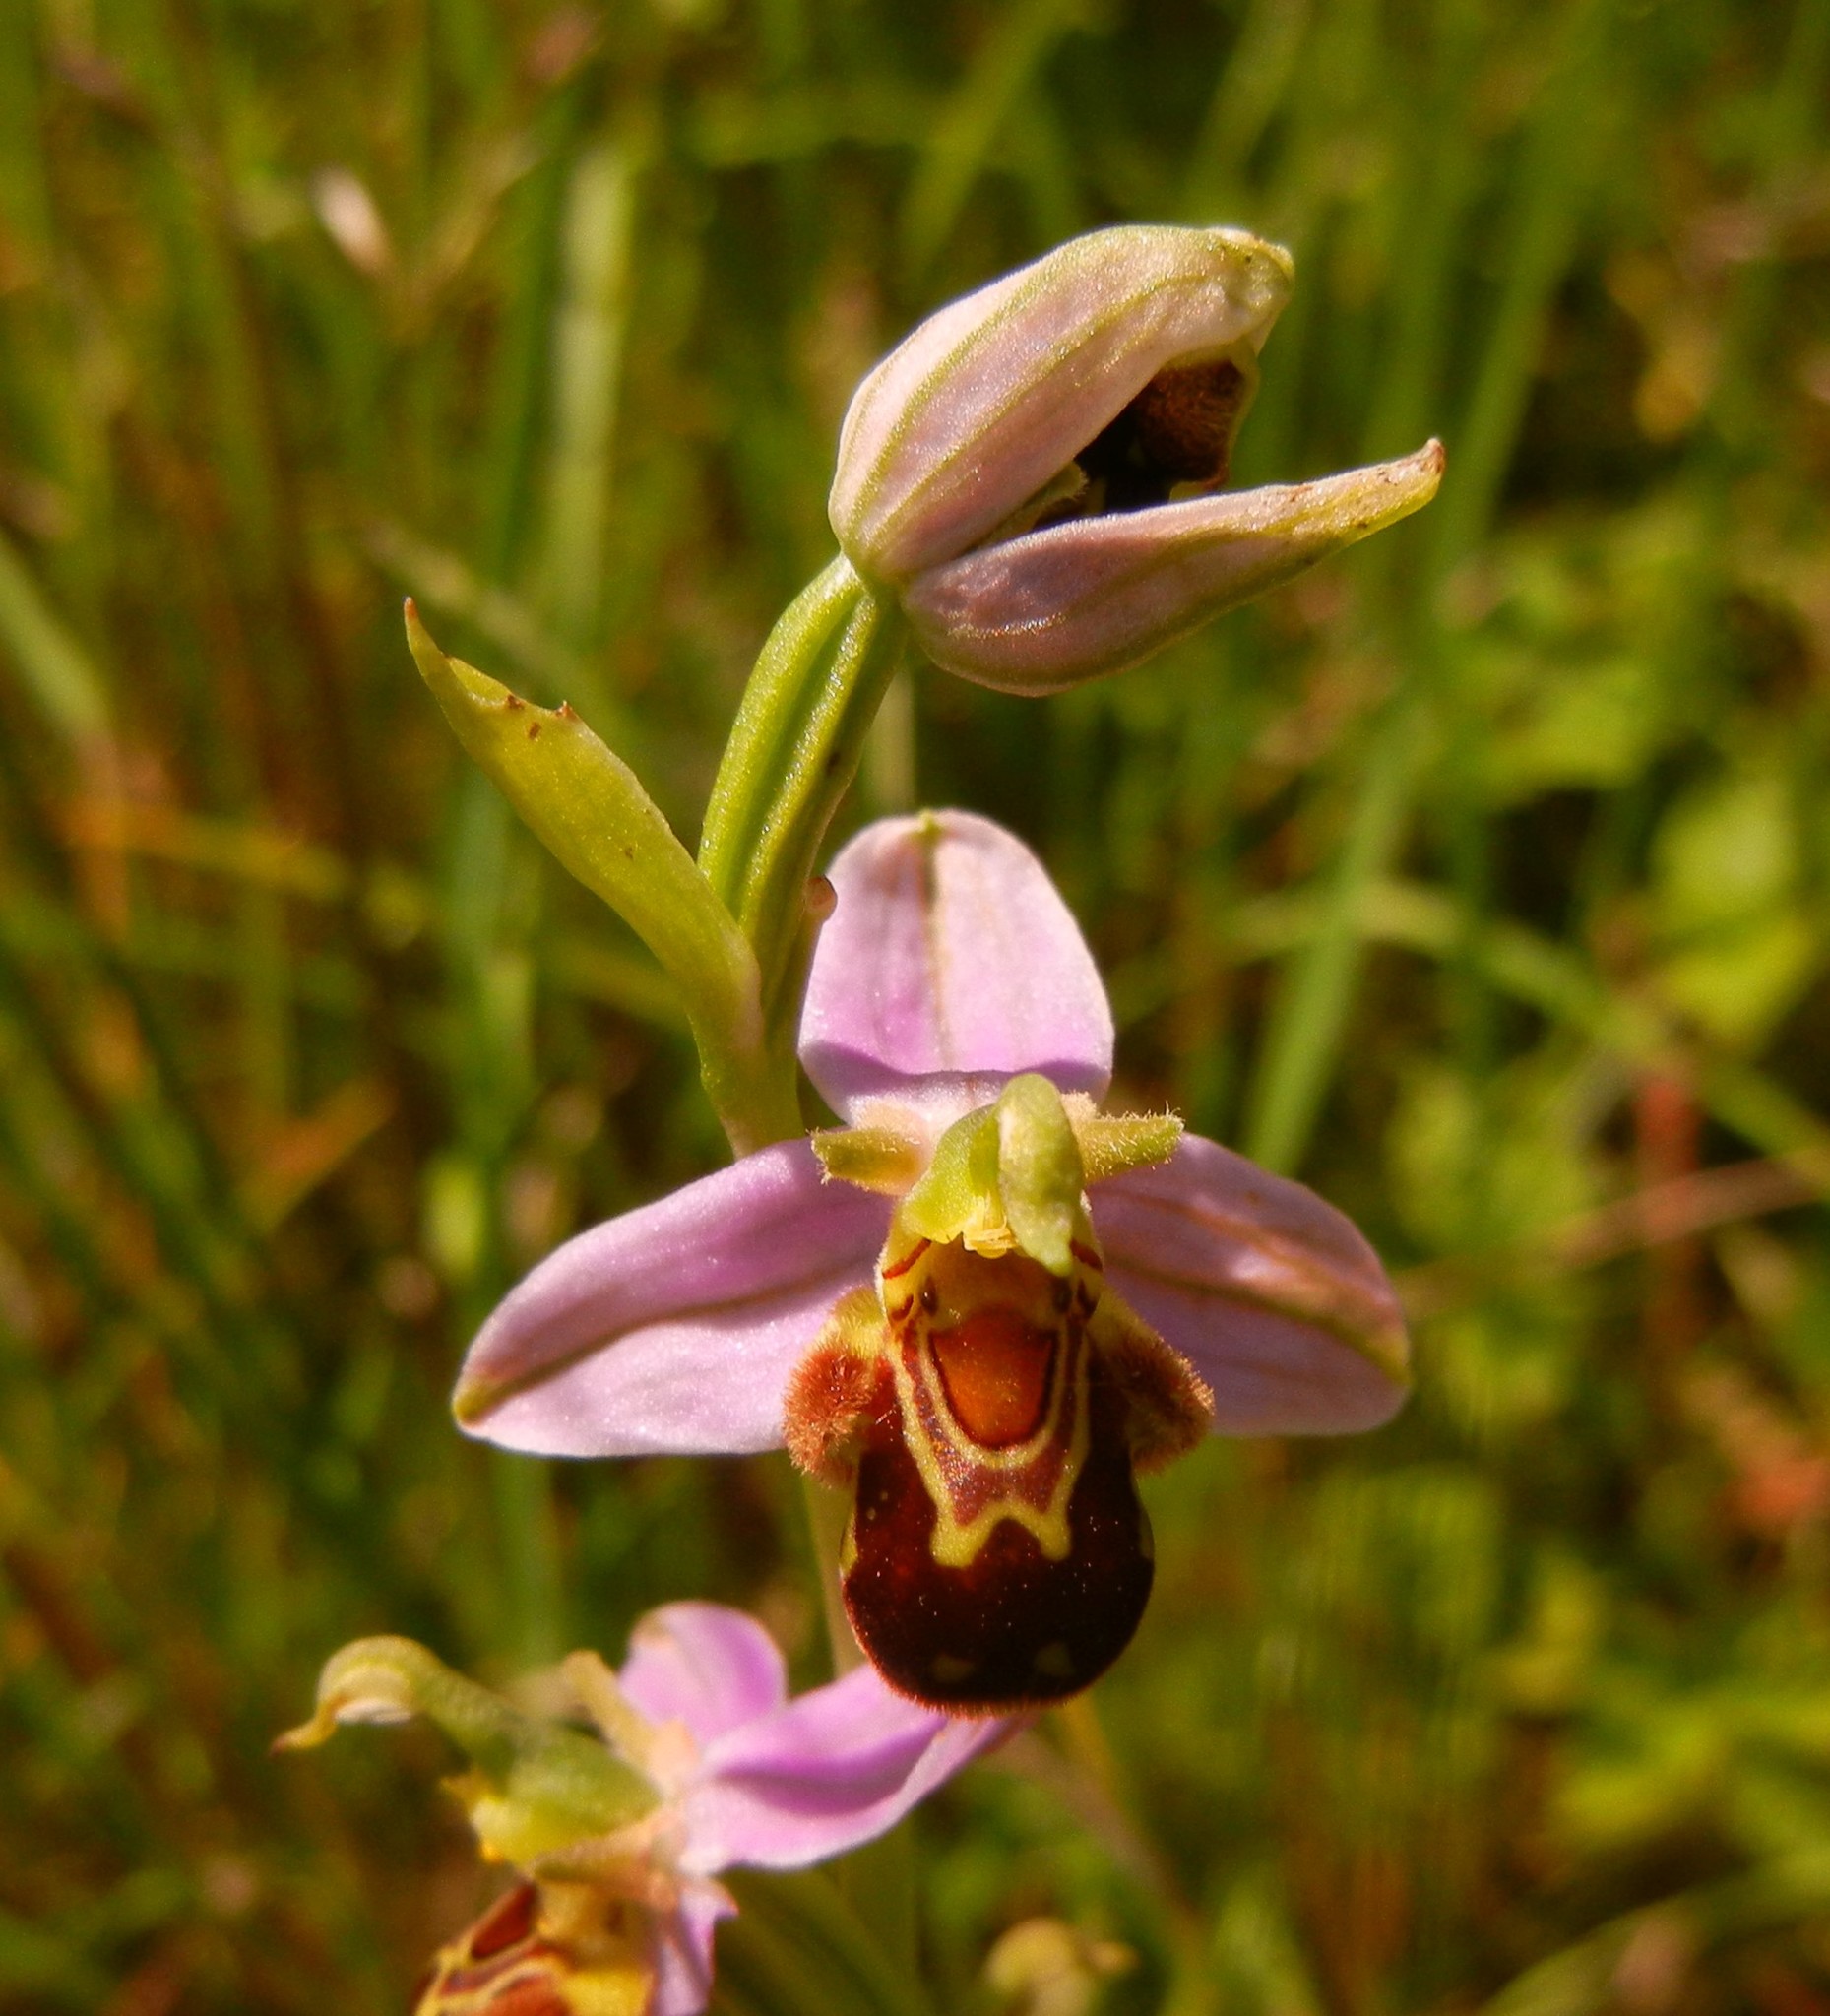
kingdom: Plantae
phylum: Tracheophyta
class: Liliopsida
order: Asparagales
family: Orchidaceae
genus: Ophrys
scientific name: Ophrys apifera
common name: Bee orchid
